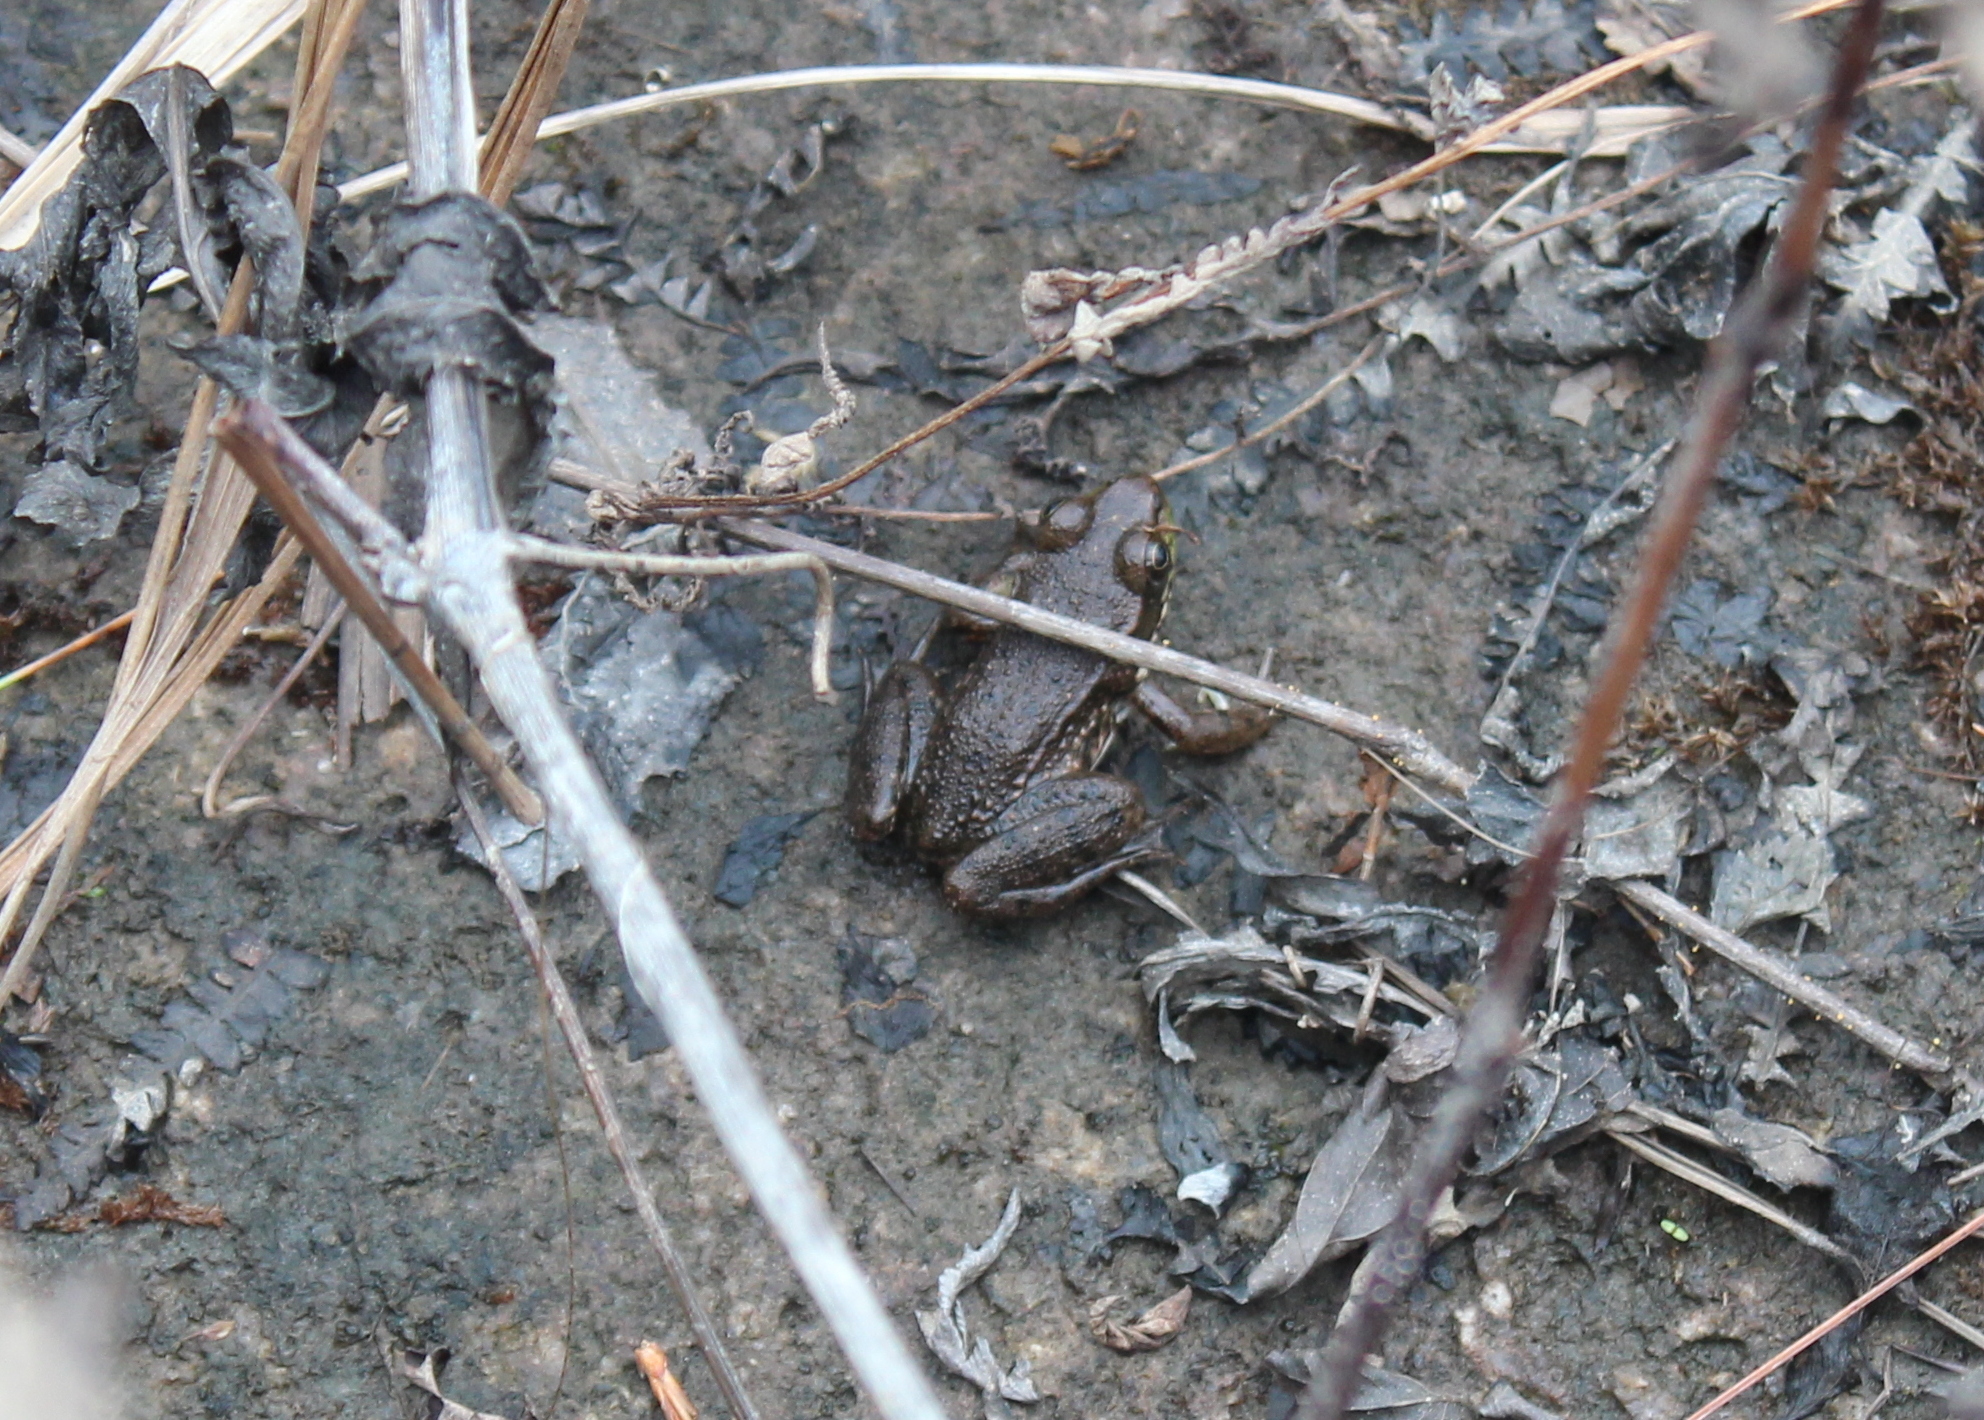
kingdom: Animalia
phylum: Chordata
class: Amphibia
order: Anura
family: Ranidae
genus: Lithobates
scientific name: Lithobates clamitans
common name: Green frog
